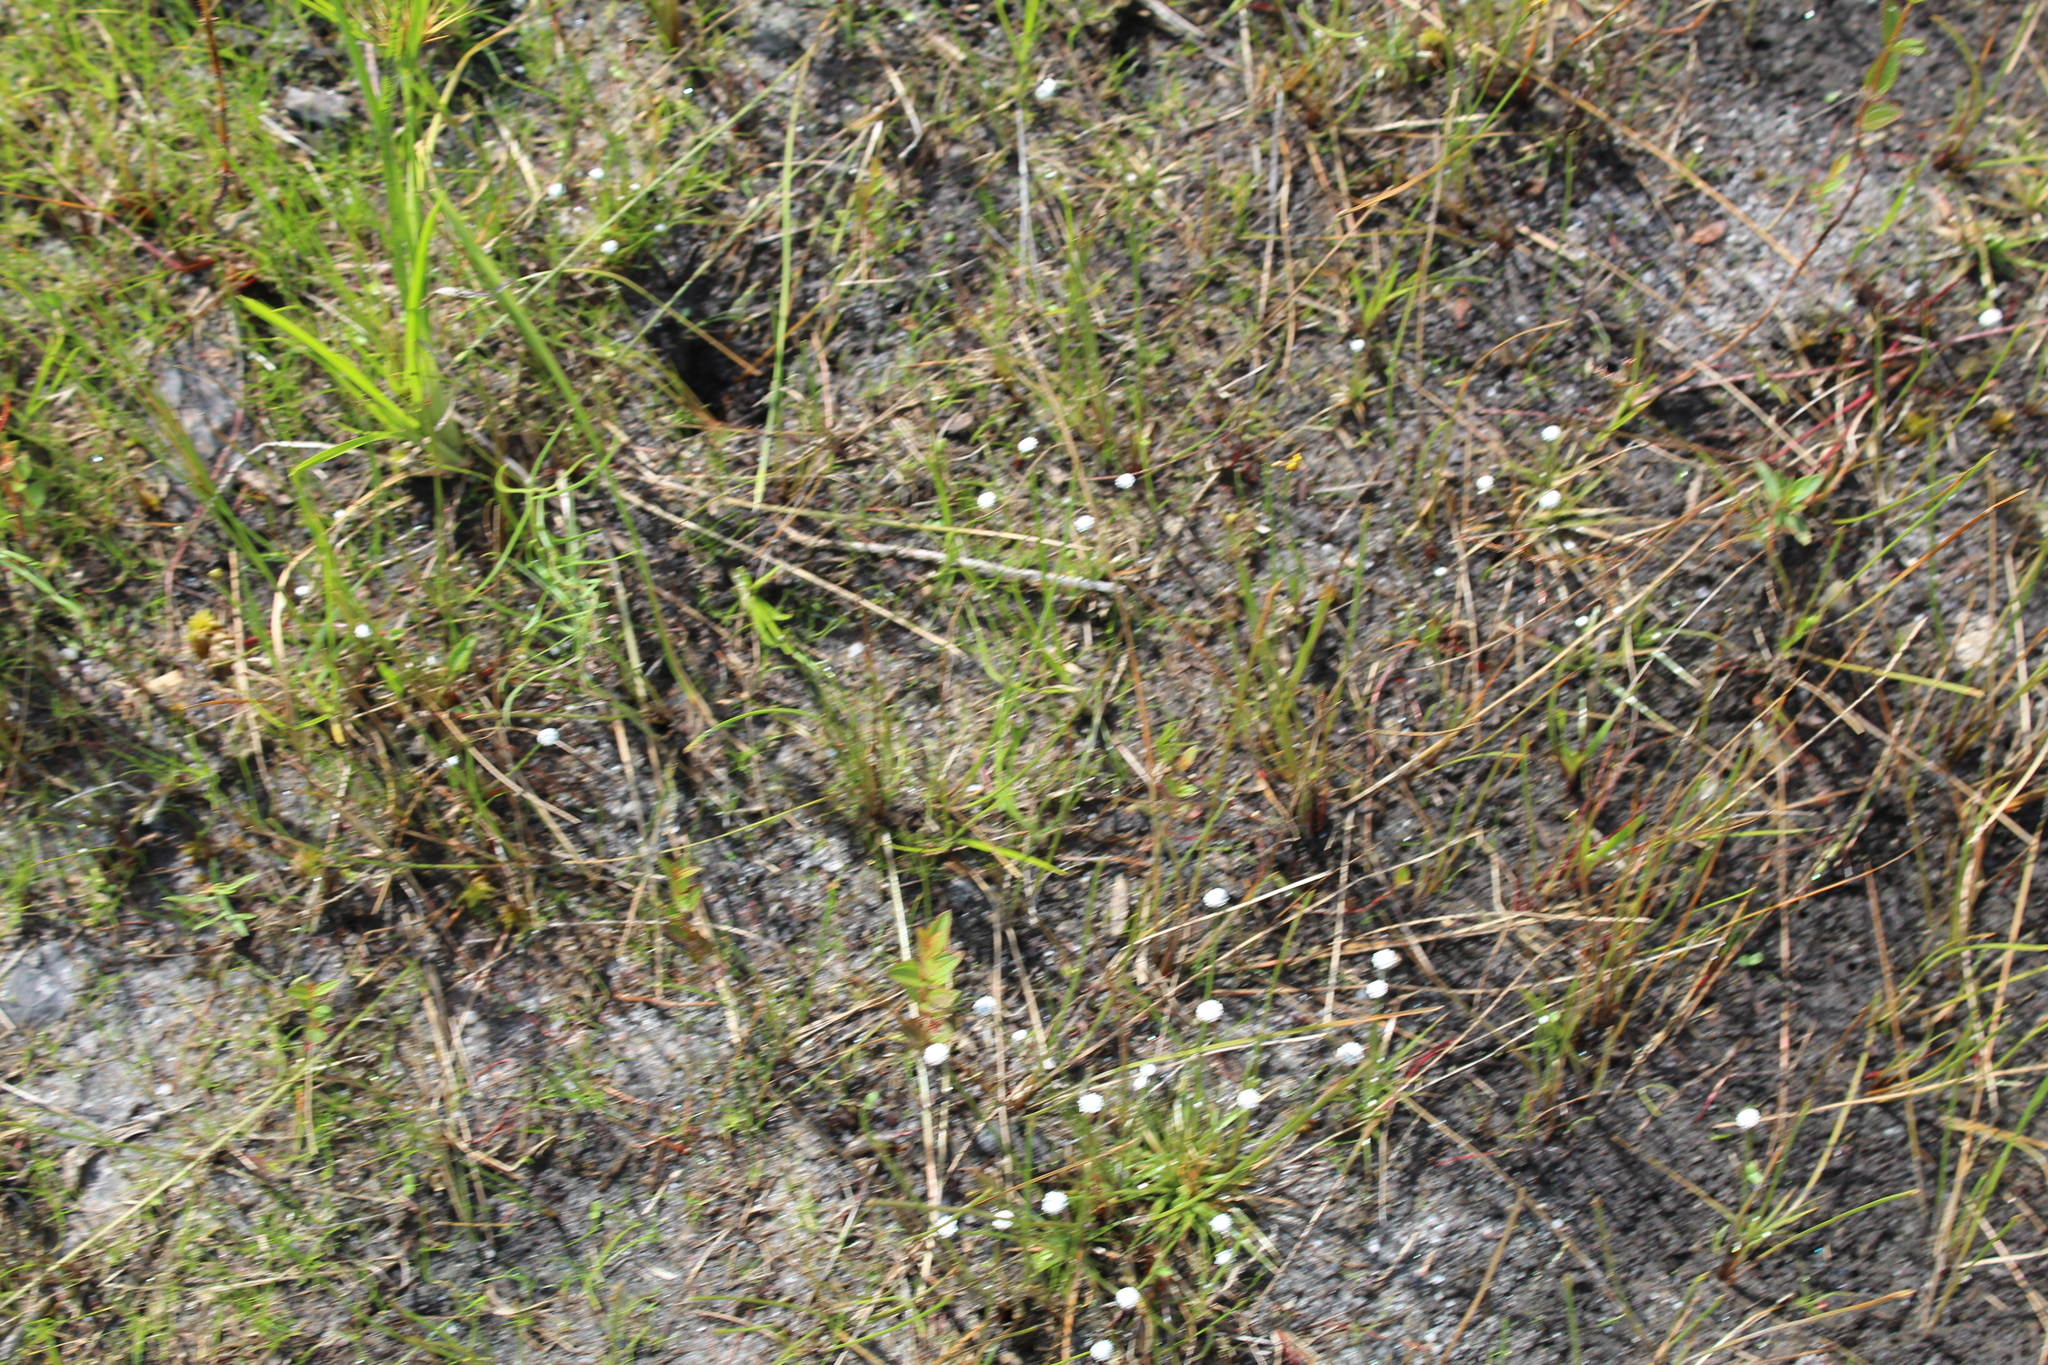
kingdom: Plantae
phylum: Tracheophyta
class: Liliopsida
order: Poales
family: Eriocaulaceae
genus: Eriocaulon
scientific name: Eriocaulon aquaticum
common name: Pipewort
